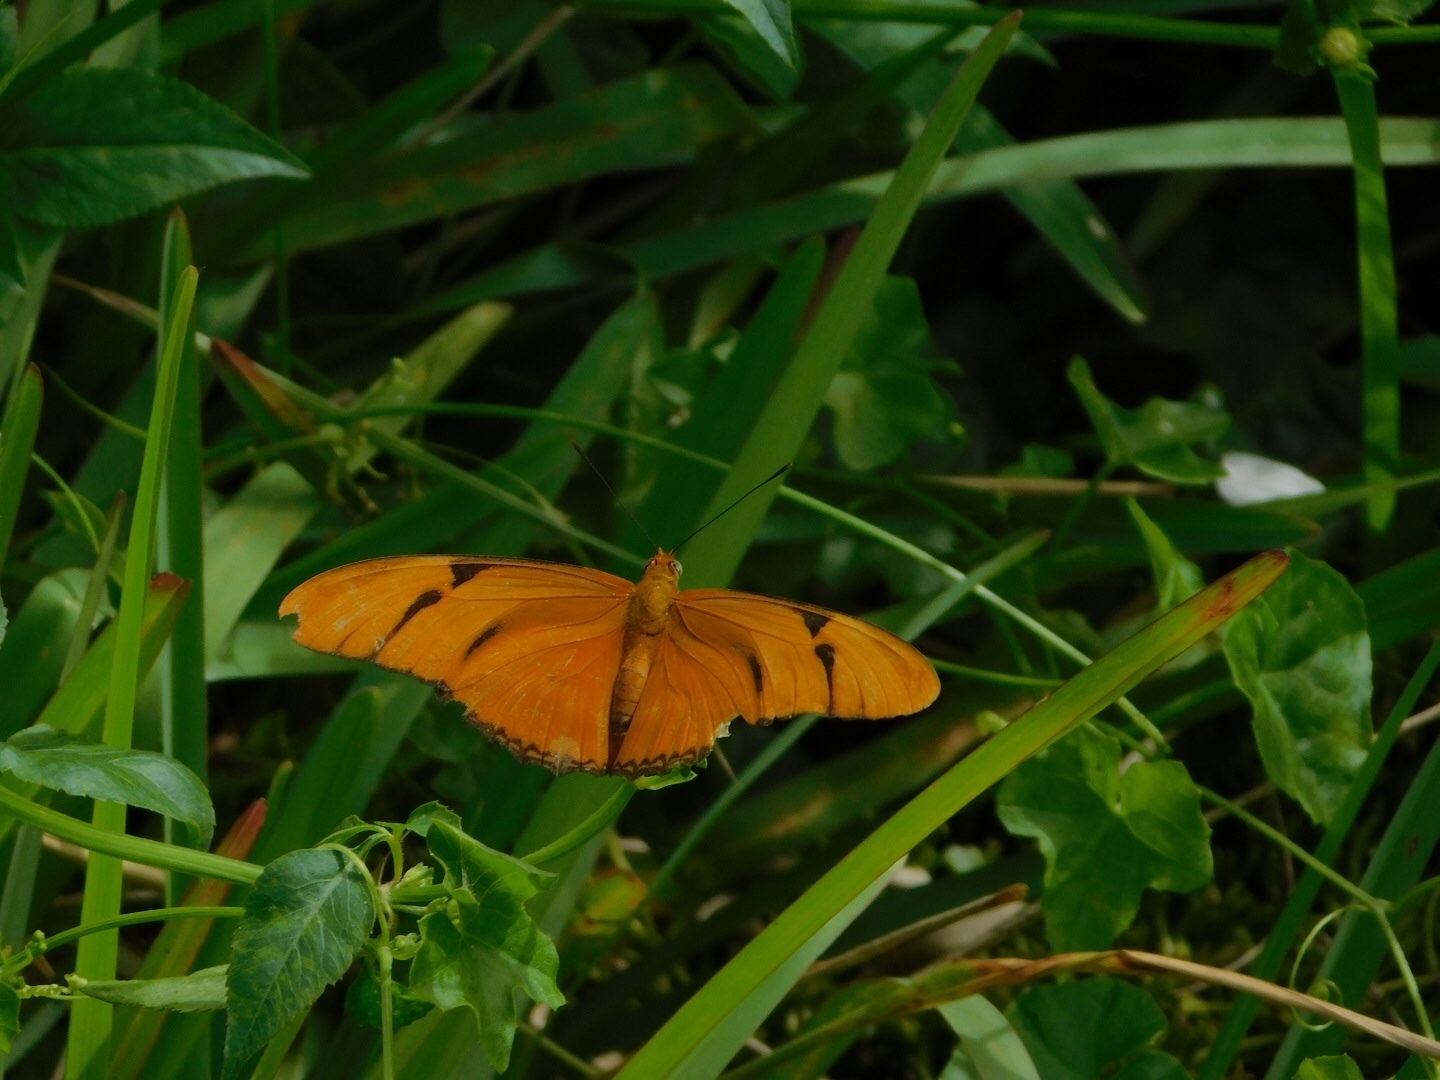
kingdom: Animalia
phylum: Arthropoda
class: Insecta
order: Lepidoptera
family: Nymphalidae
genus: Dryas
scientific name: Dryas iulia
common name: Flambeau
